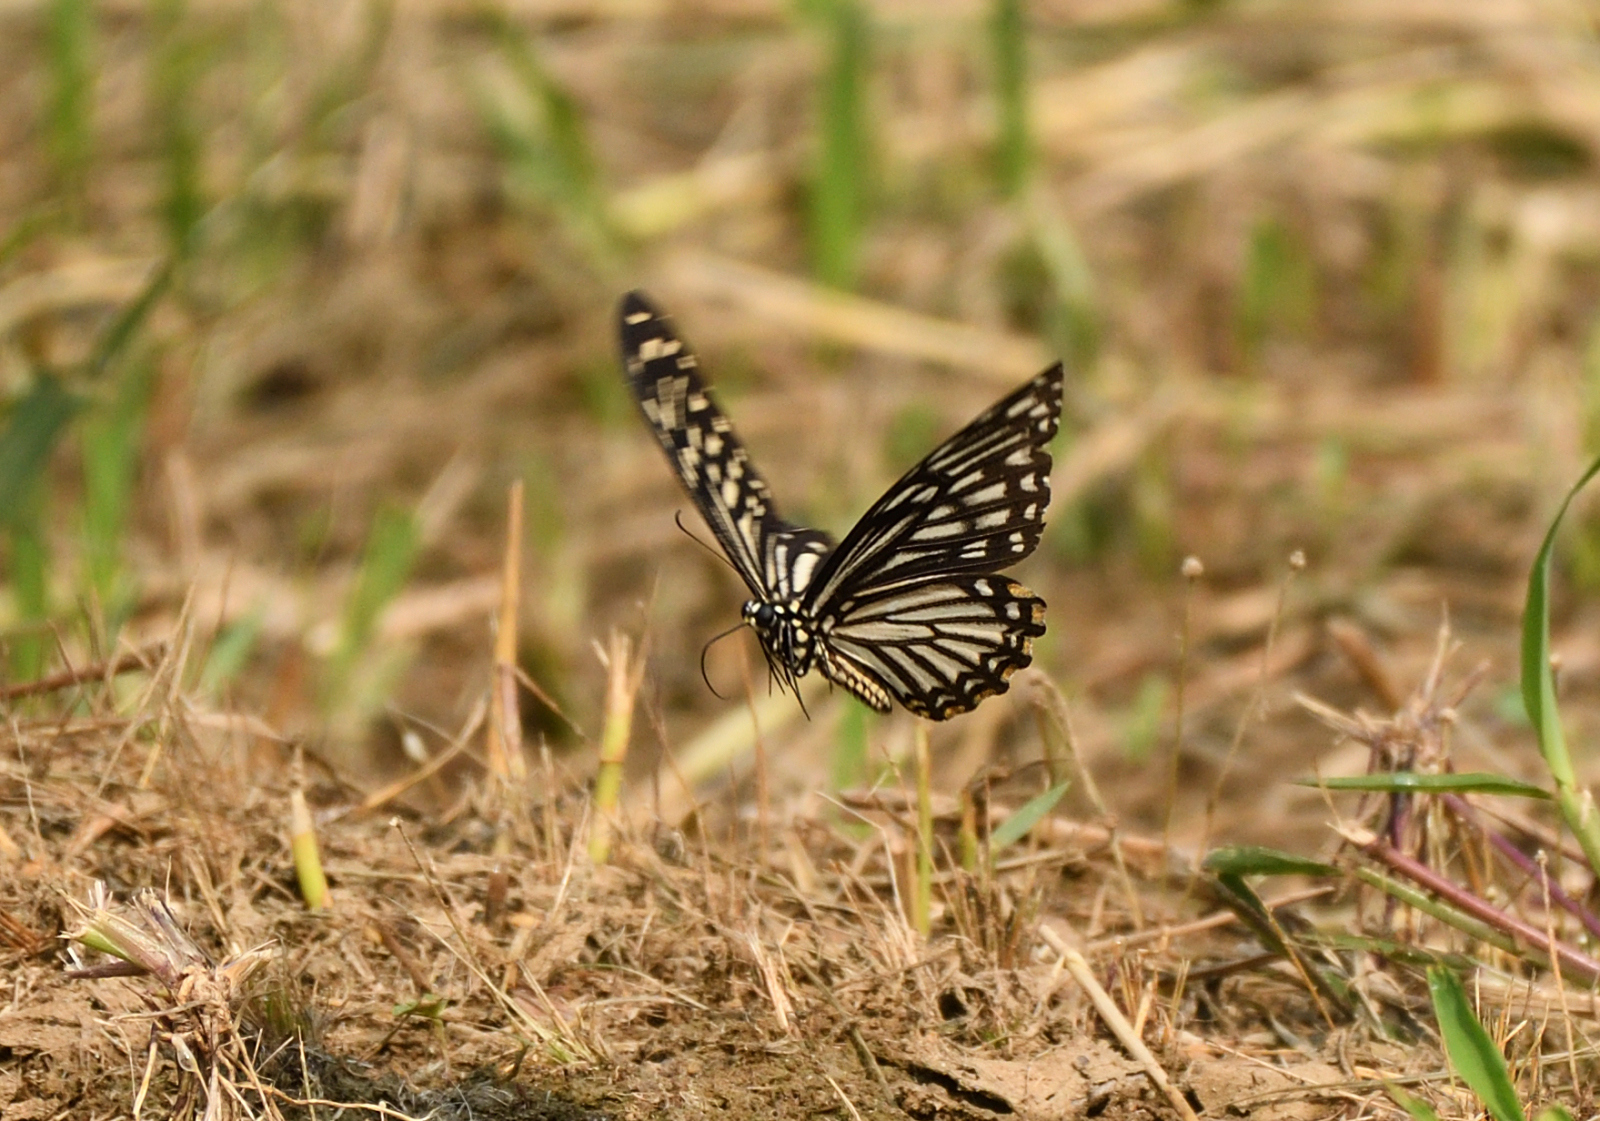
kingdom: Animalia
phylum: Arthropoda
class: Insecta
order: Lepidoptera
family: Papilionidae
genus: Chilasa
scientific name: Chilasa clytia
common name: Common mime
